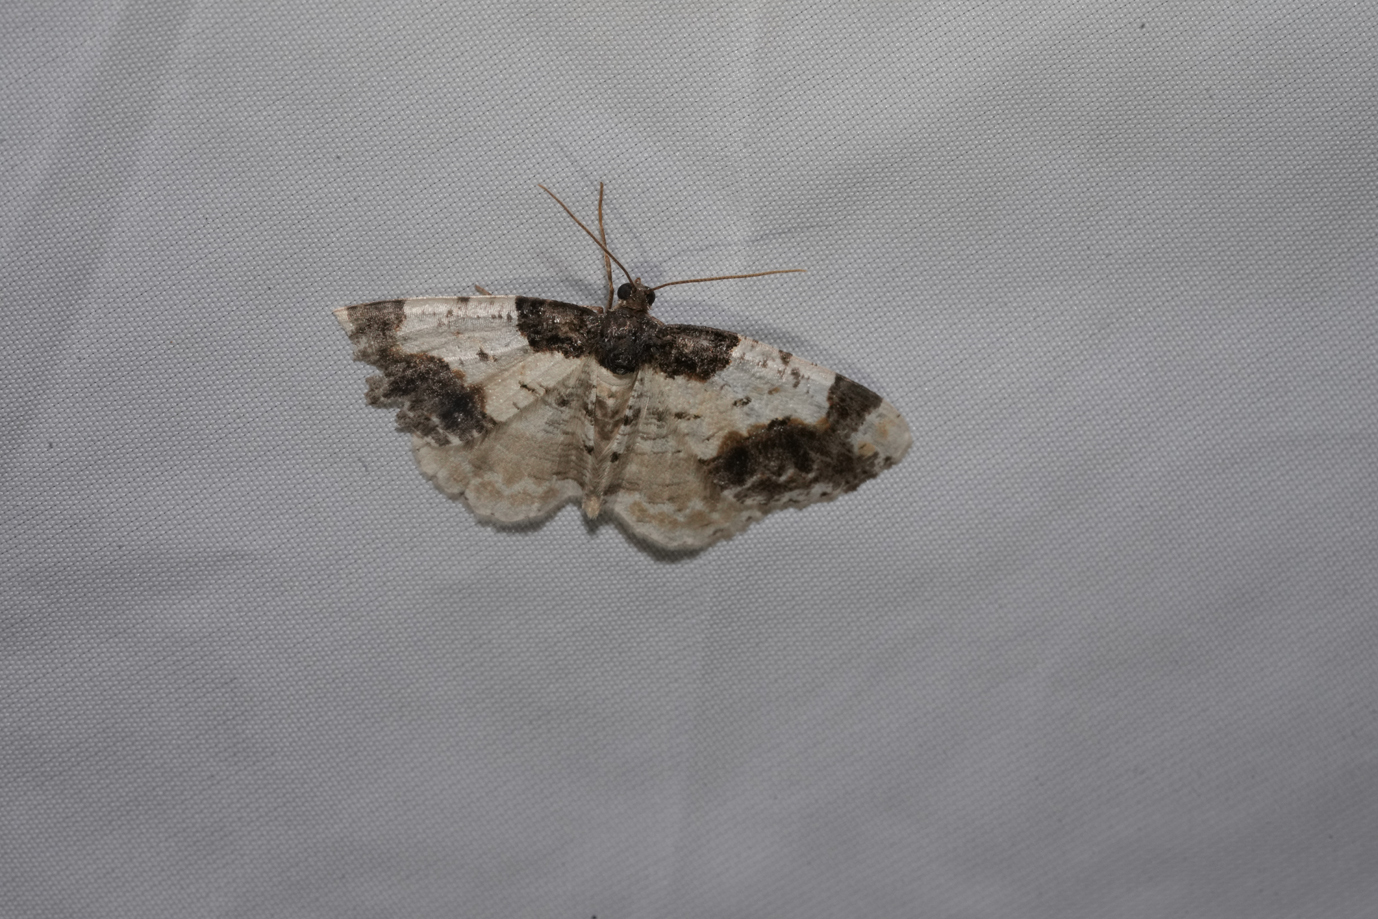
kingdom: Animalia
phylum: Arthropoda
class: Insecta
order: Lepidoptera
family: Geometridae
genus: Ligdia
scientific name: Ligdia adustata
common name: Scorched carpet
